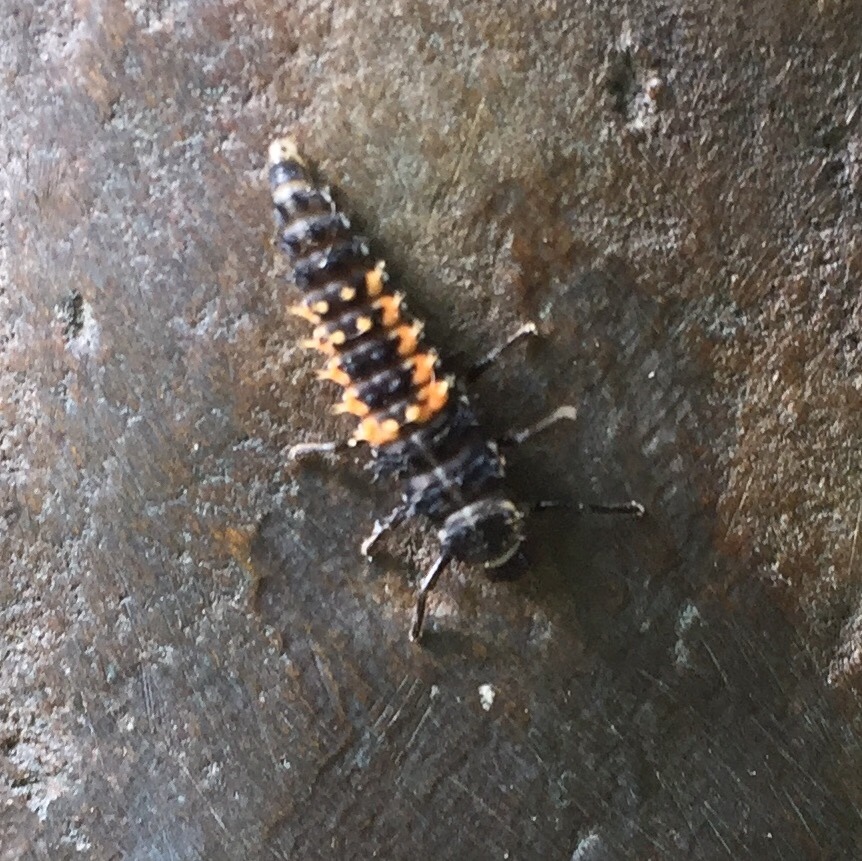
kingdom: Animalia
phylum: Arthropoda
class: Insecta
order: Coleoptera
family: Coccinellidae
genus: Harmonia
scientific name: Harmonia axyridis
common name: Harlequin ladybird
